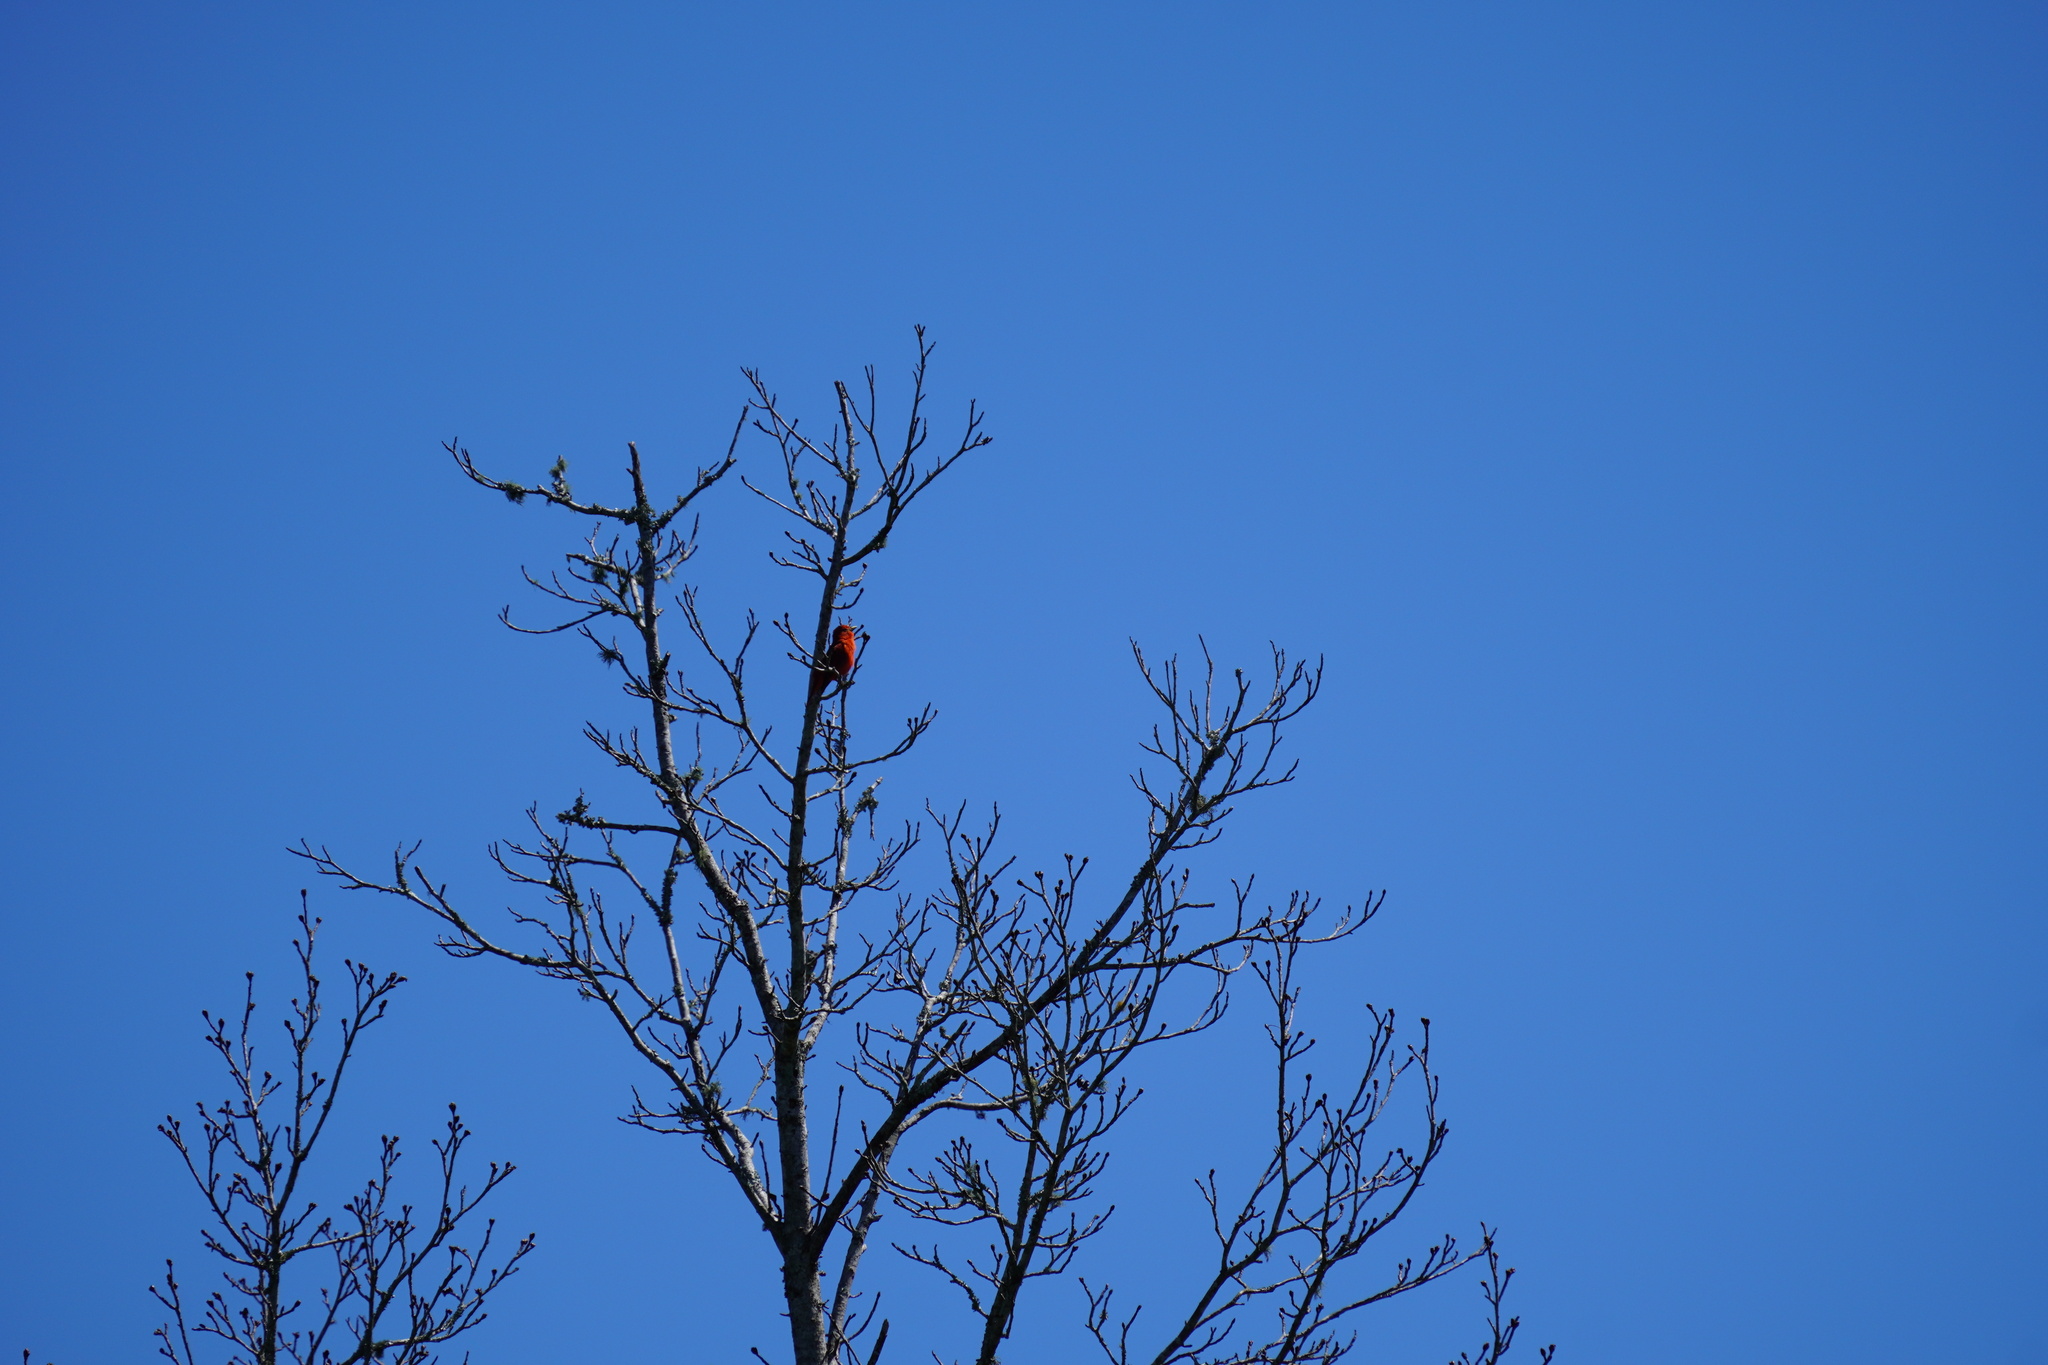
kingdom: Animalia
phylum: Chordata
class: Aves
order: Passeriformes
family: Cardinalidae
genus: Piranga
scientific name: Piranga rubra
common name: Summer tanager
